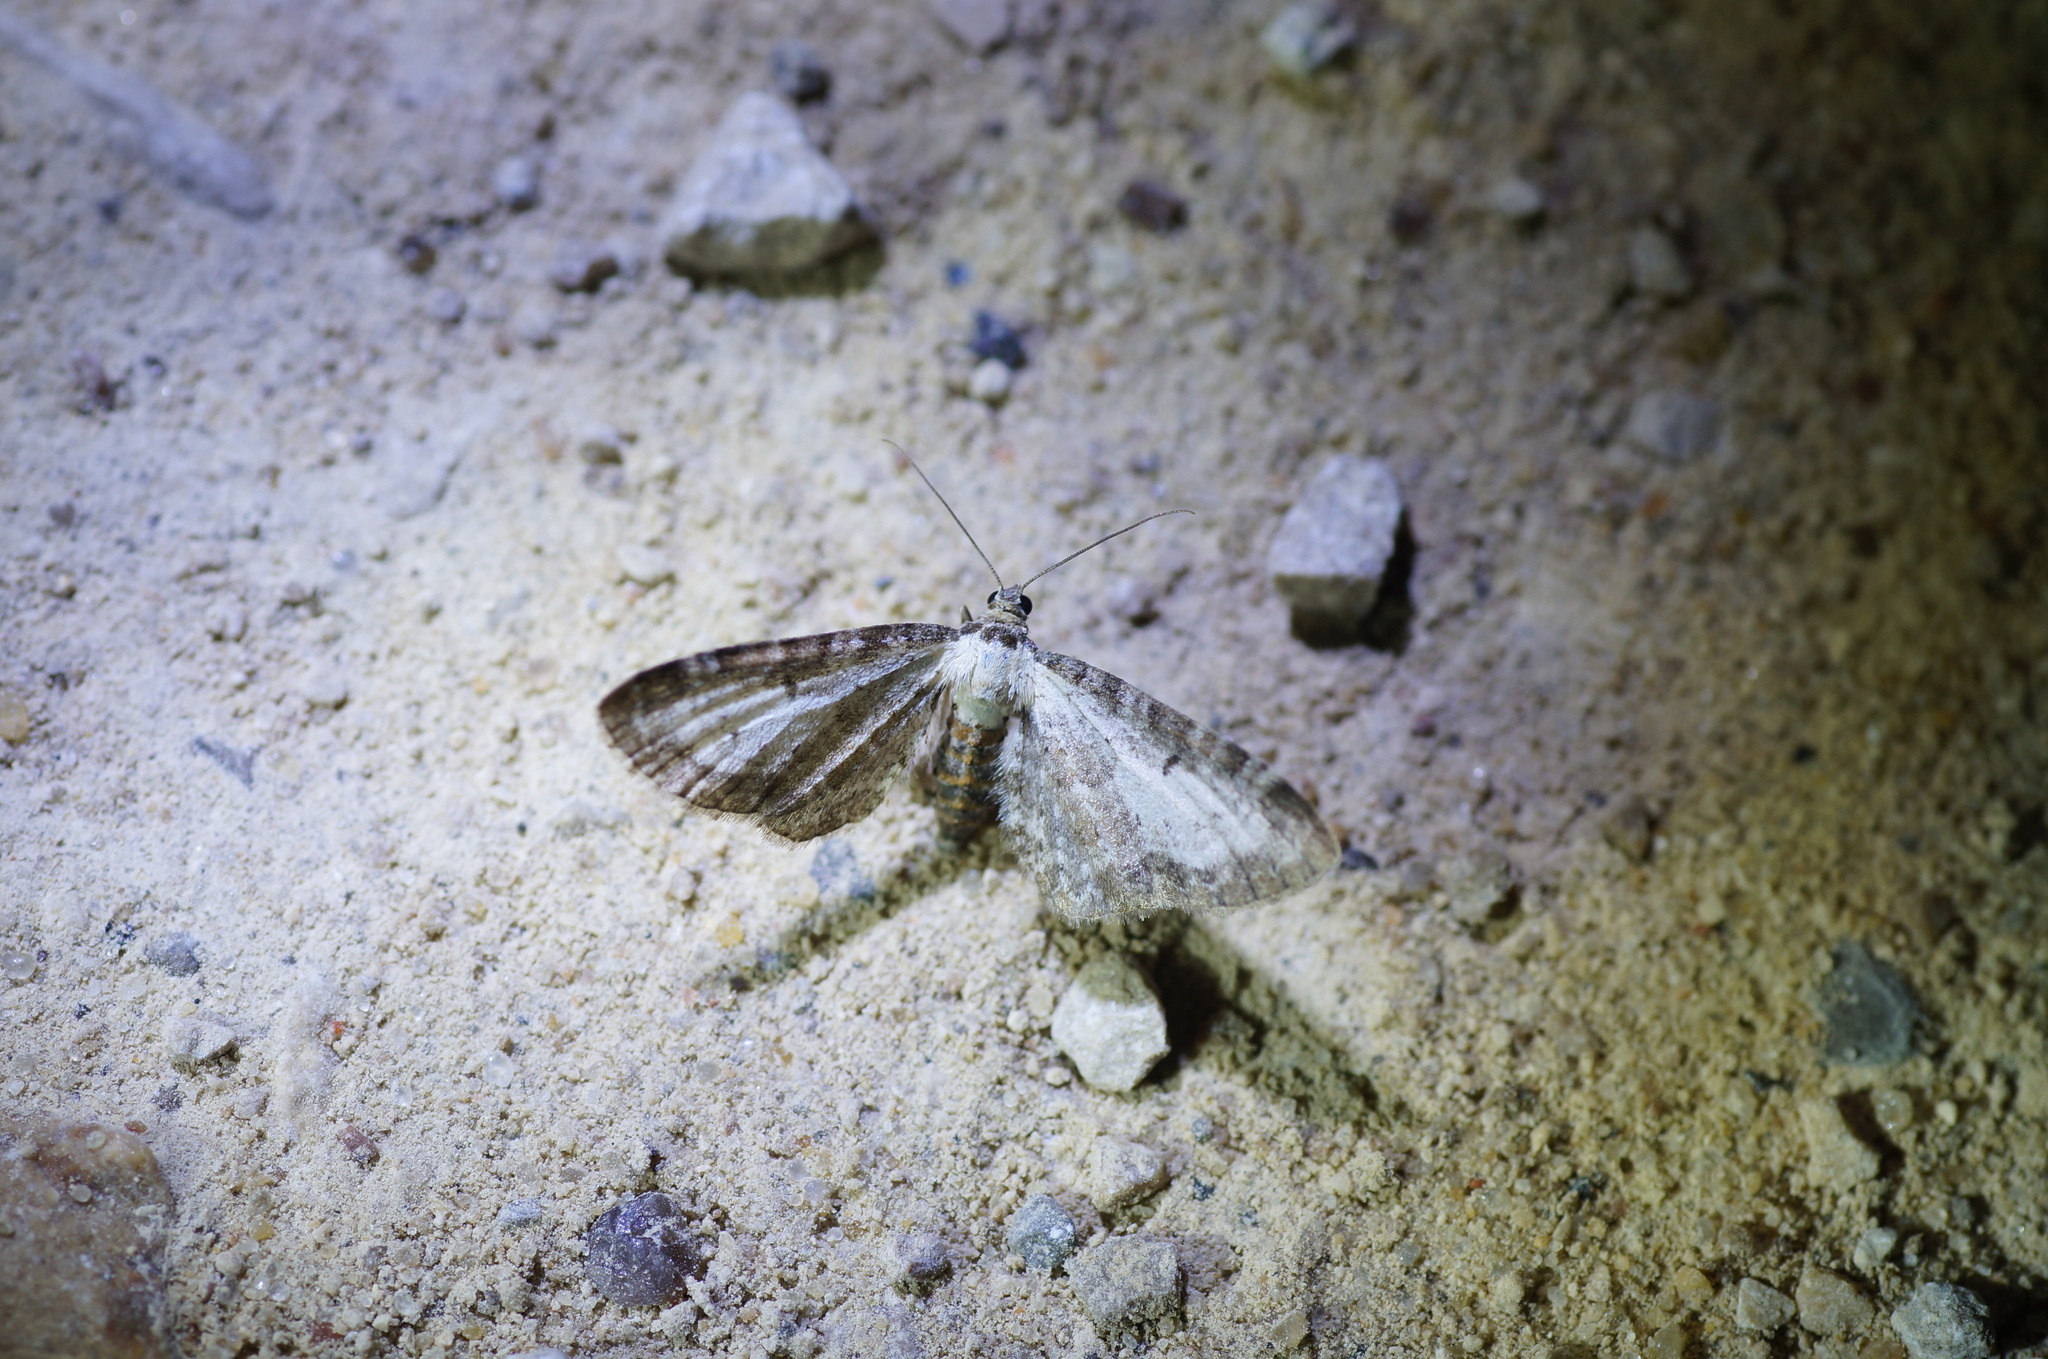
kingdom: Animalia
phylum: Arthropoda
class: Insecta
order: Lepidoptera
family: Geometridae
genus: Eupithecia
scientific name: Eupithecia succenturiata
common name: Bordered pug
